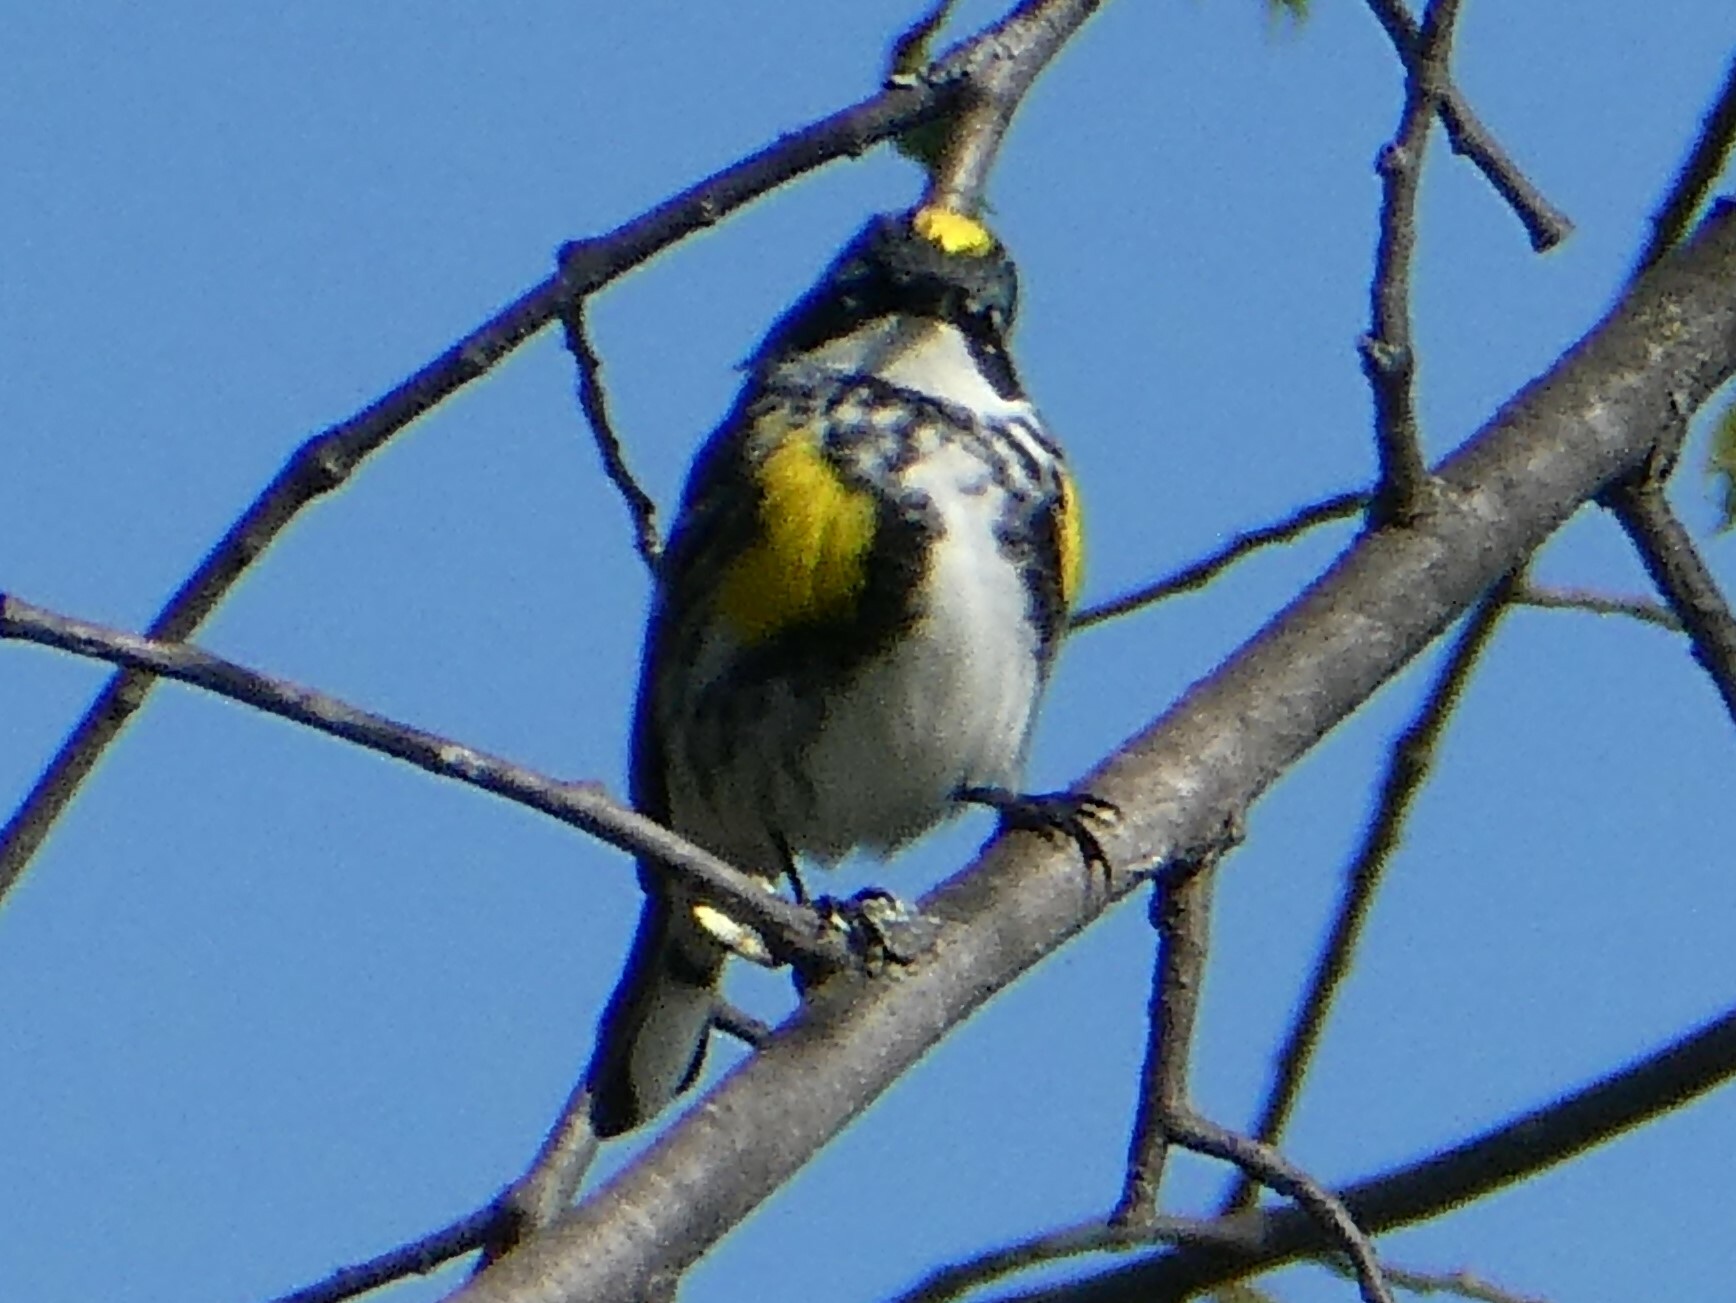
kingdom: Animalia
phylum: Chordata
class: Aves
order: Passeriformes
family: Parulidae
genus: Setophaga
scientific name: Setophaga coronata
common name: Myrtle warbler
